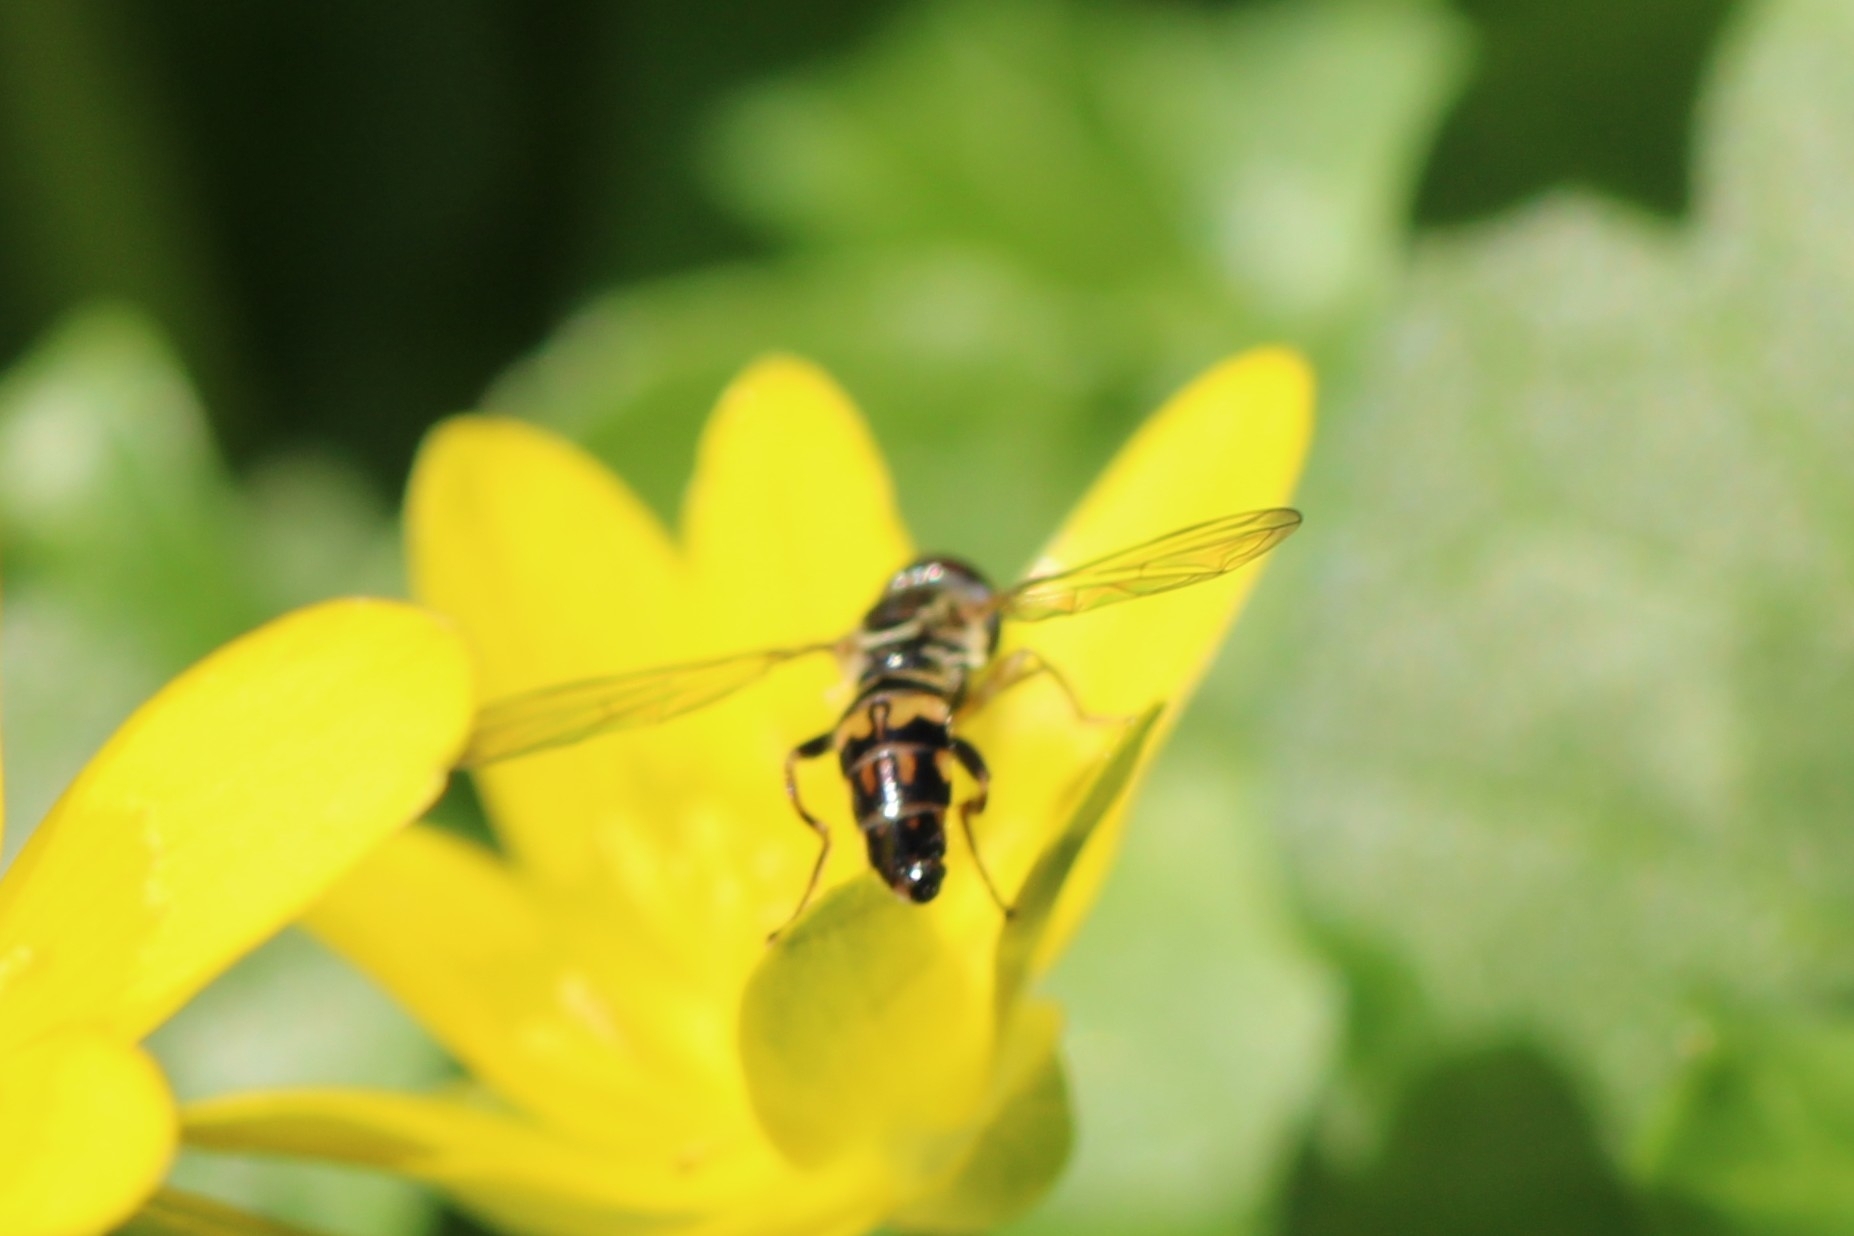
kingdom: Animalia
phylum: Arthropoda
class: Insecta
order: Diptera
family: Syrphidae
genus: Toxomerus
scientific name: Toxomerus geminatus
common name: Eastern calligrapher
